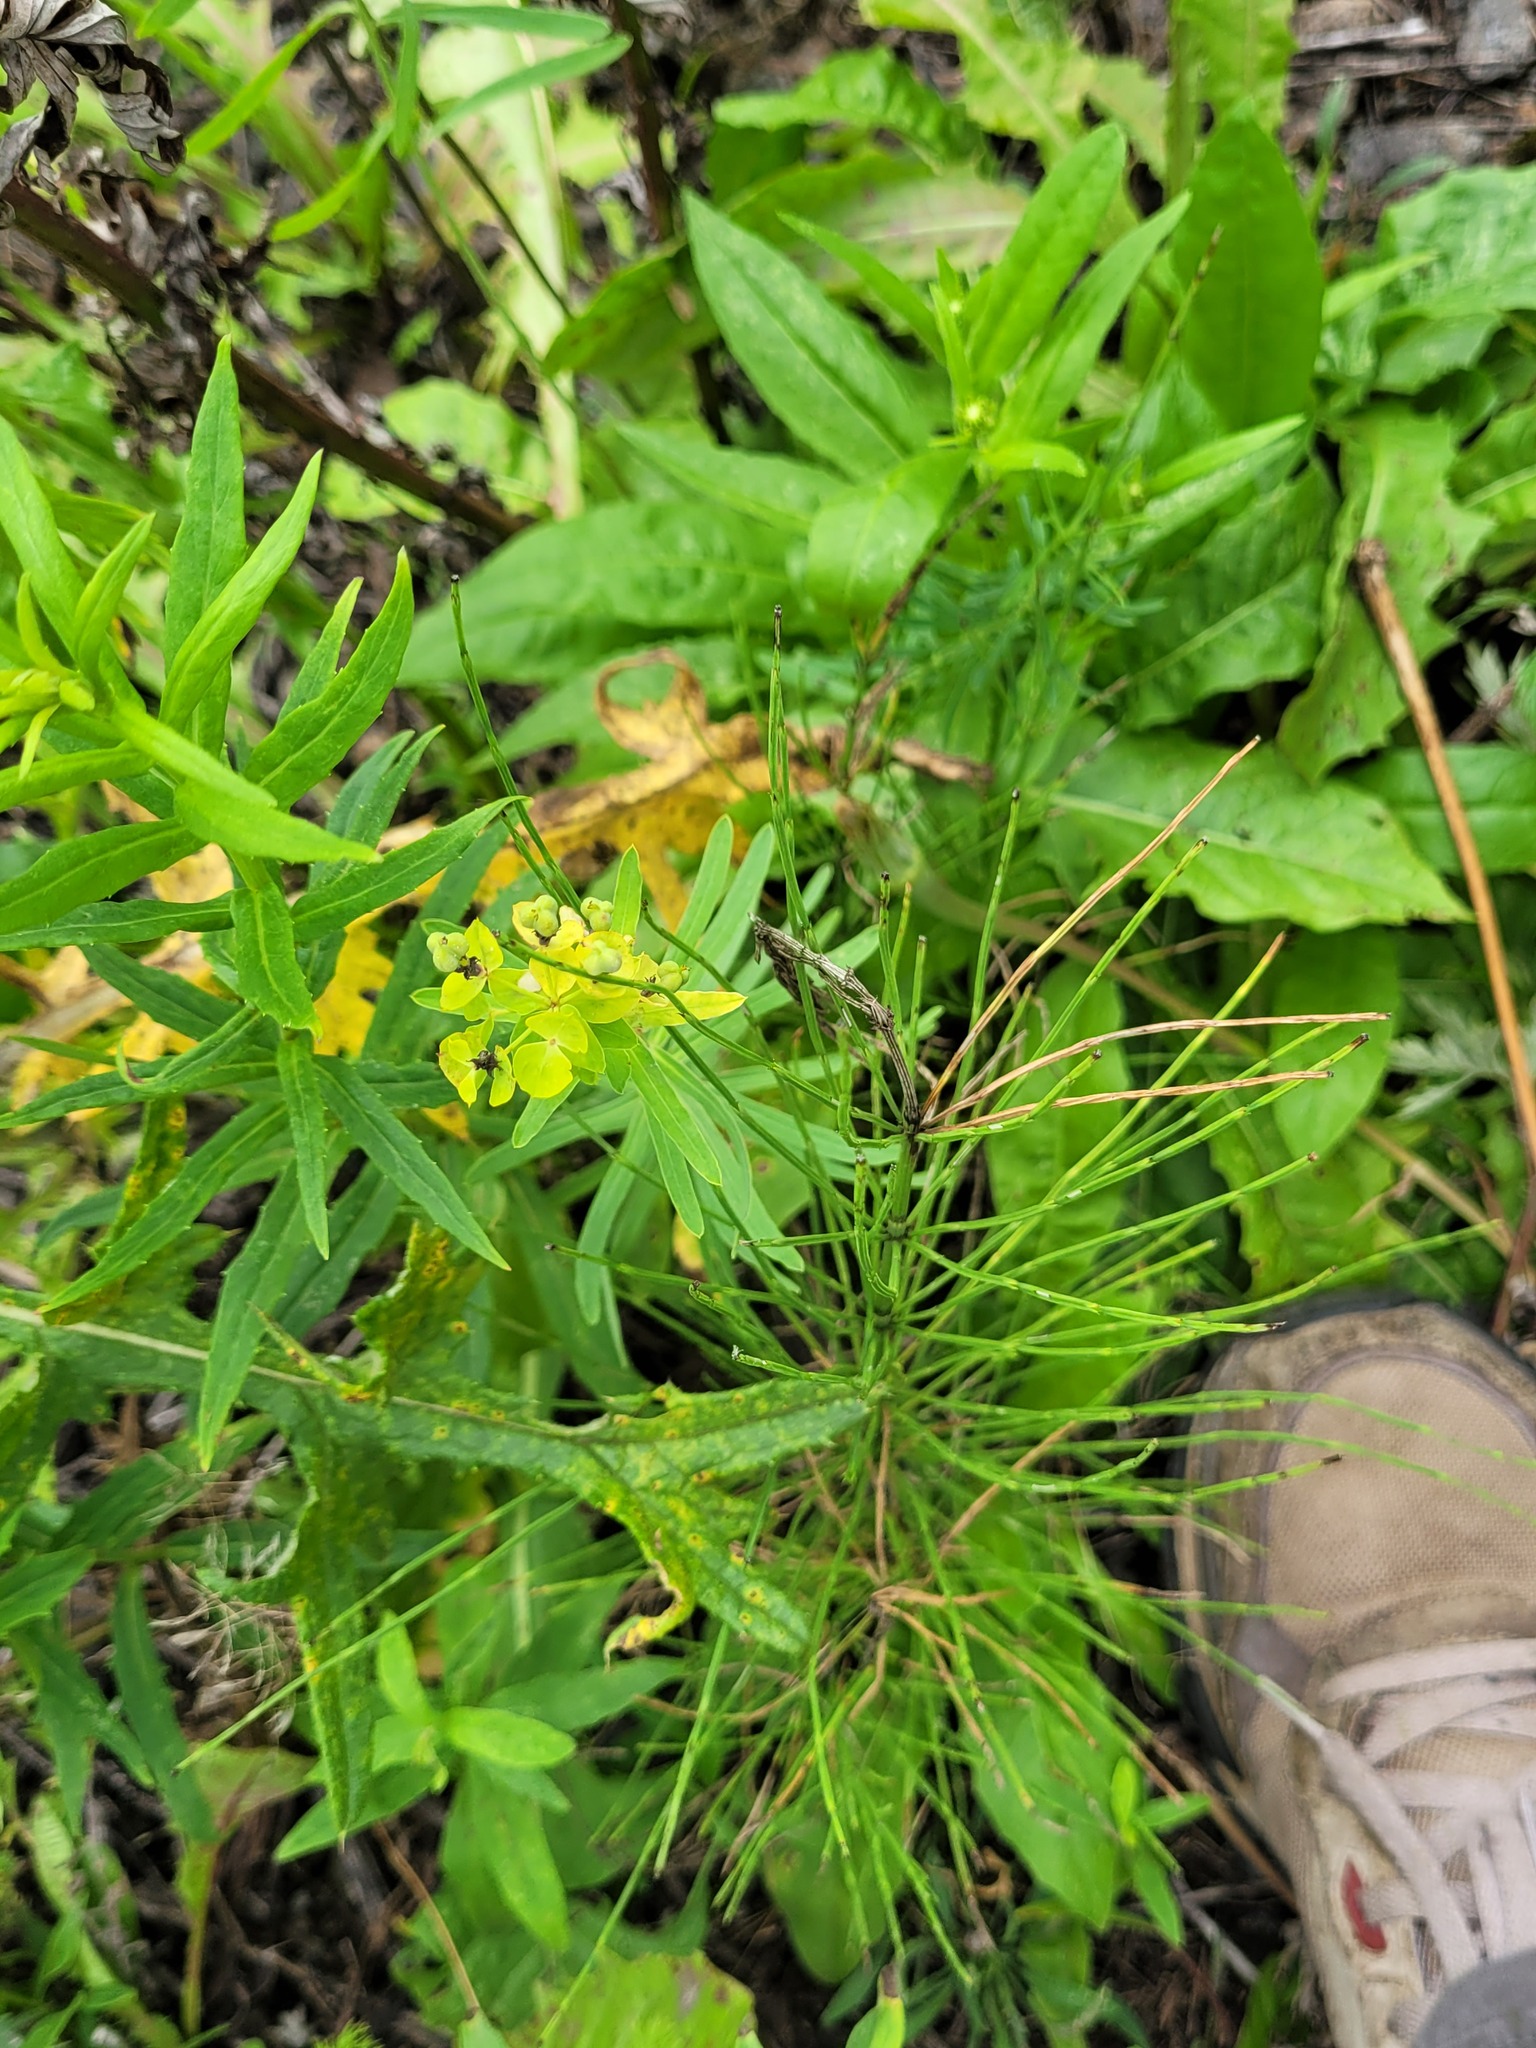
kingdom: Plantae
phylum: Tracheophyta
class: Magnoliopsida
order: Malpighiales
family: Euphorbiaceae
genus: Euphorbia
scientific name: Euphorbia virgata
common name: Leafy spurge
